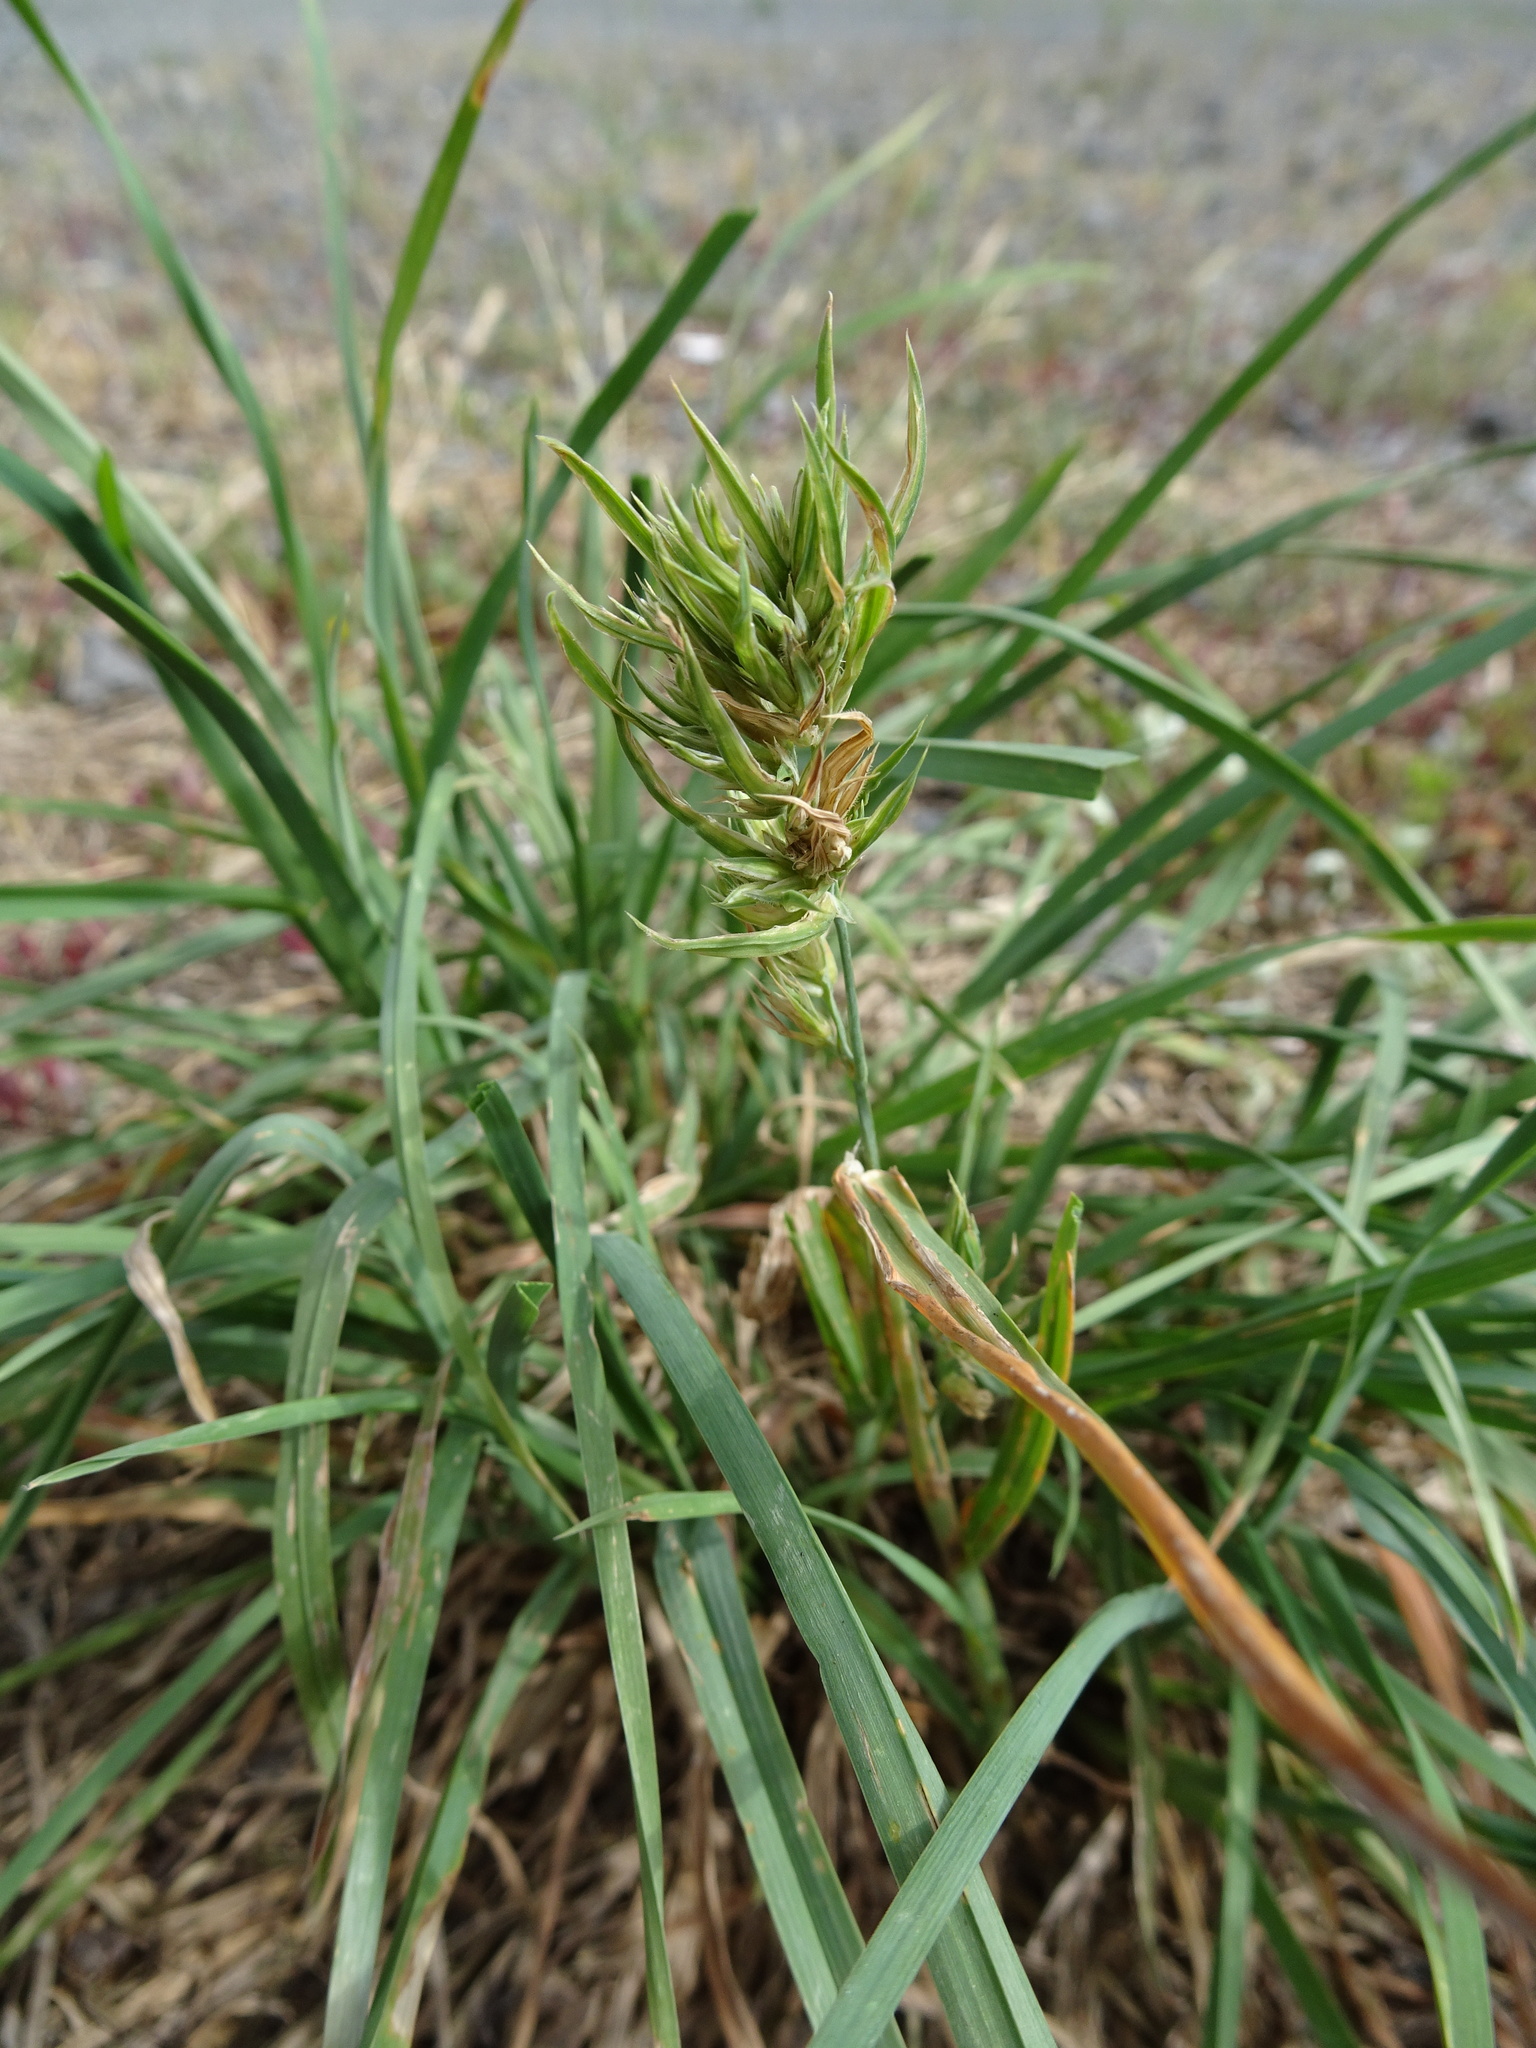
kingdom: Plantae
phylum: Tracheophyta
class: Liliopsida
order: Poales
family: Poaceae
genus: Dactylis
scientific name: Dactylis glomerata
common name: Orchardgrass
